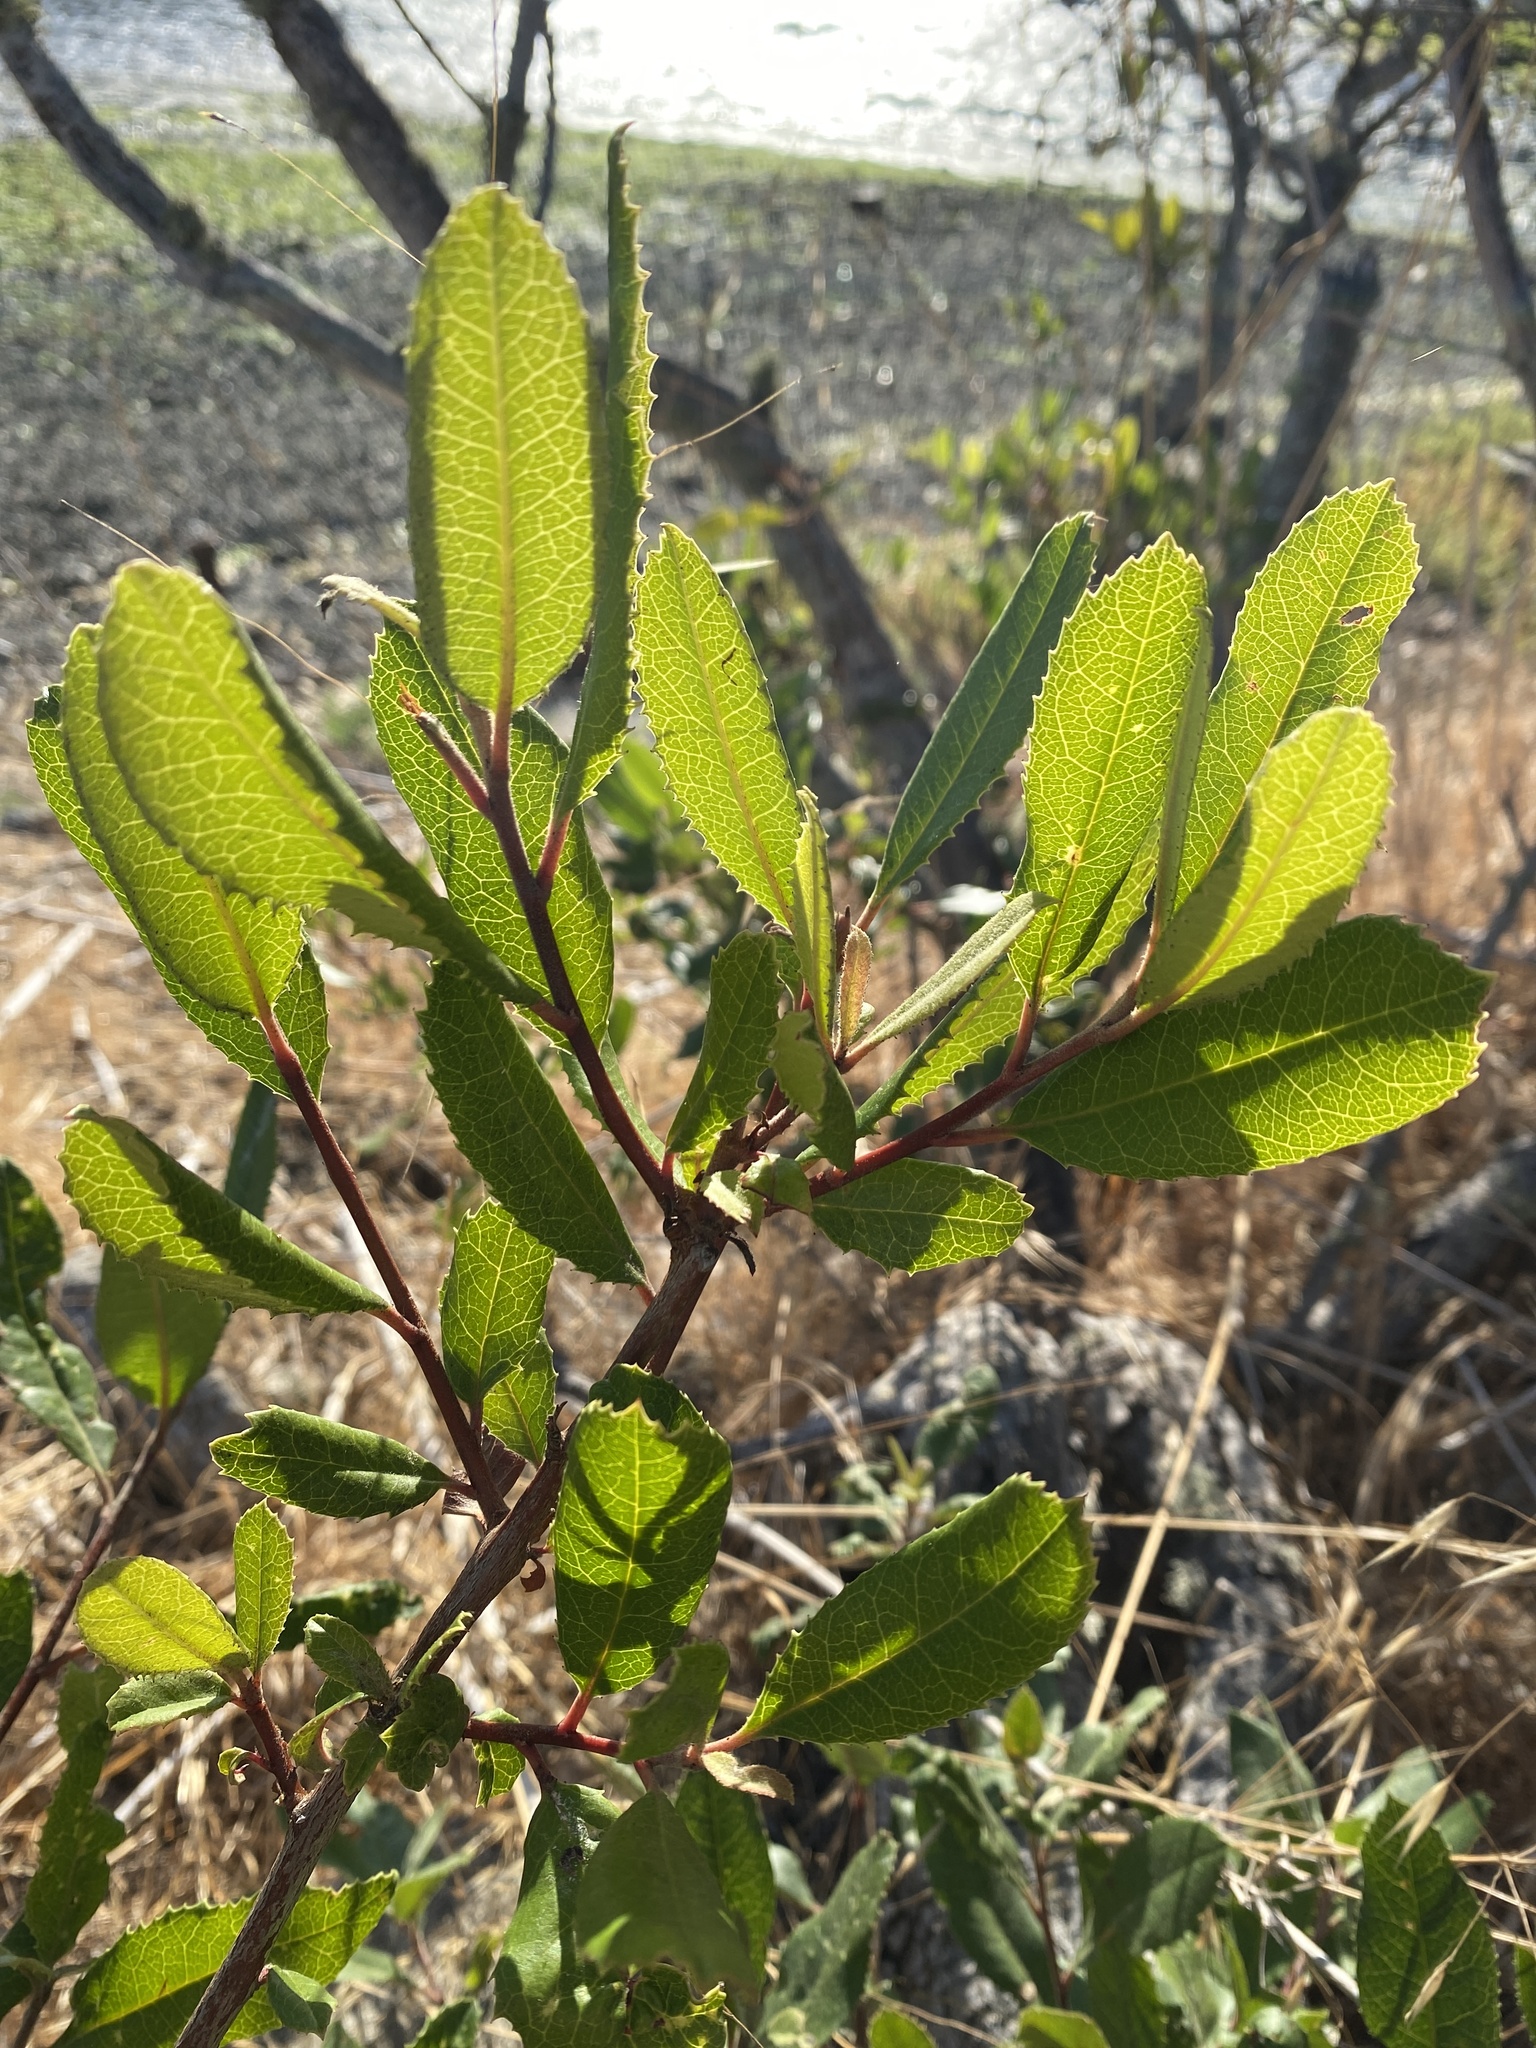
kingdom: Plantae
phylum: Tracheophyta
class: Magnoliopsida
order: Rosales
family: Rosaceae
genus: Heteromeles
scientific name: Heteromeles arbutifolia
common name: California-holly
